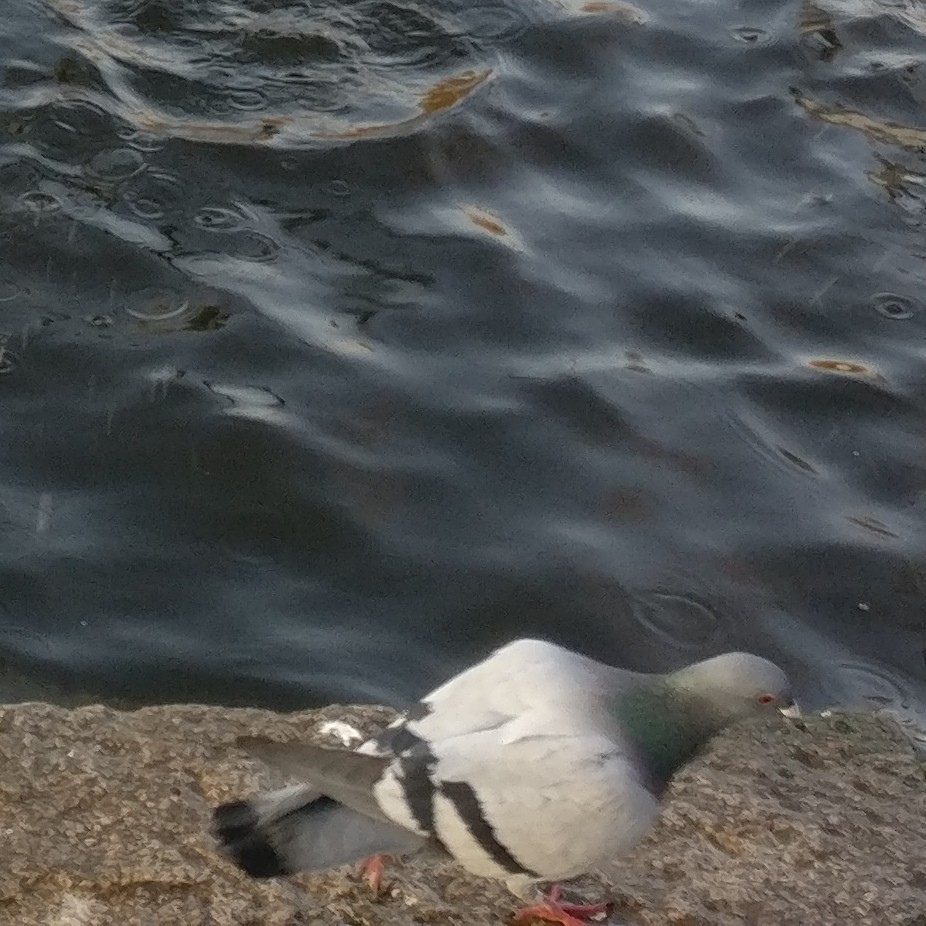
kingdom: Animalia
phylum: Chordata
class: Aves
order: Columbiformes
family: Columbidae
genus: Columba
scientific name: Columba livia
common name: Rock pigeon
